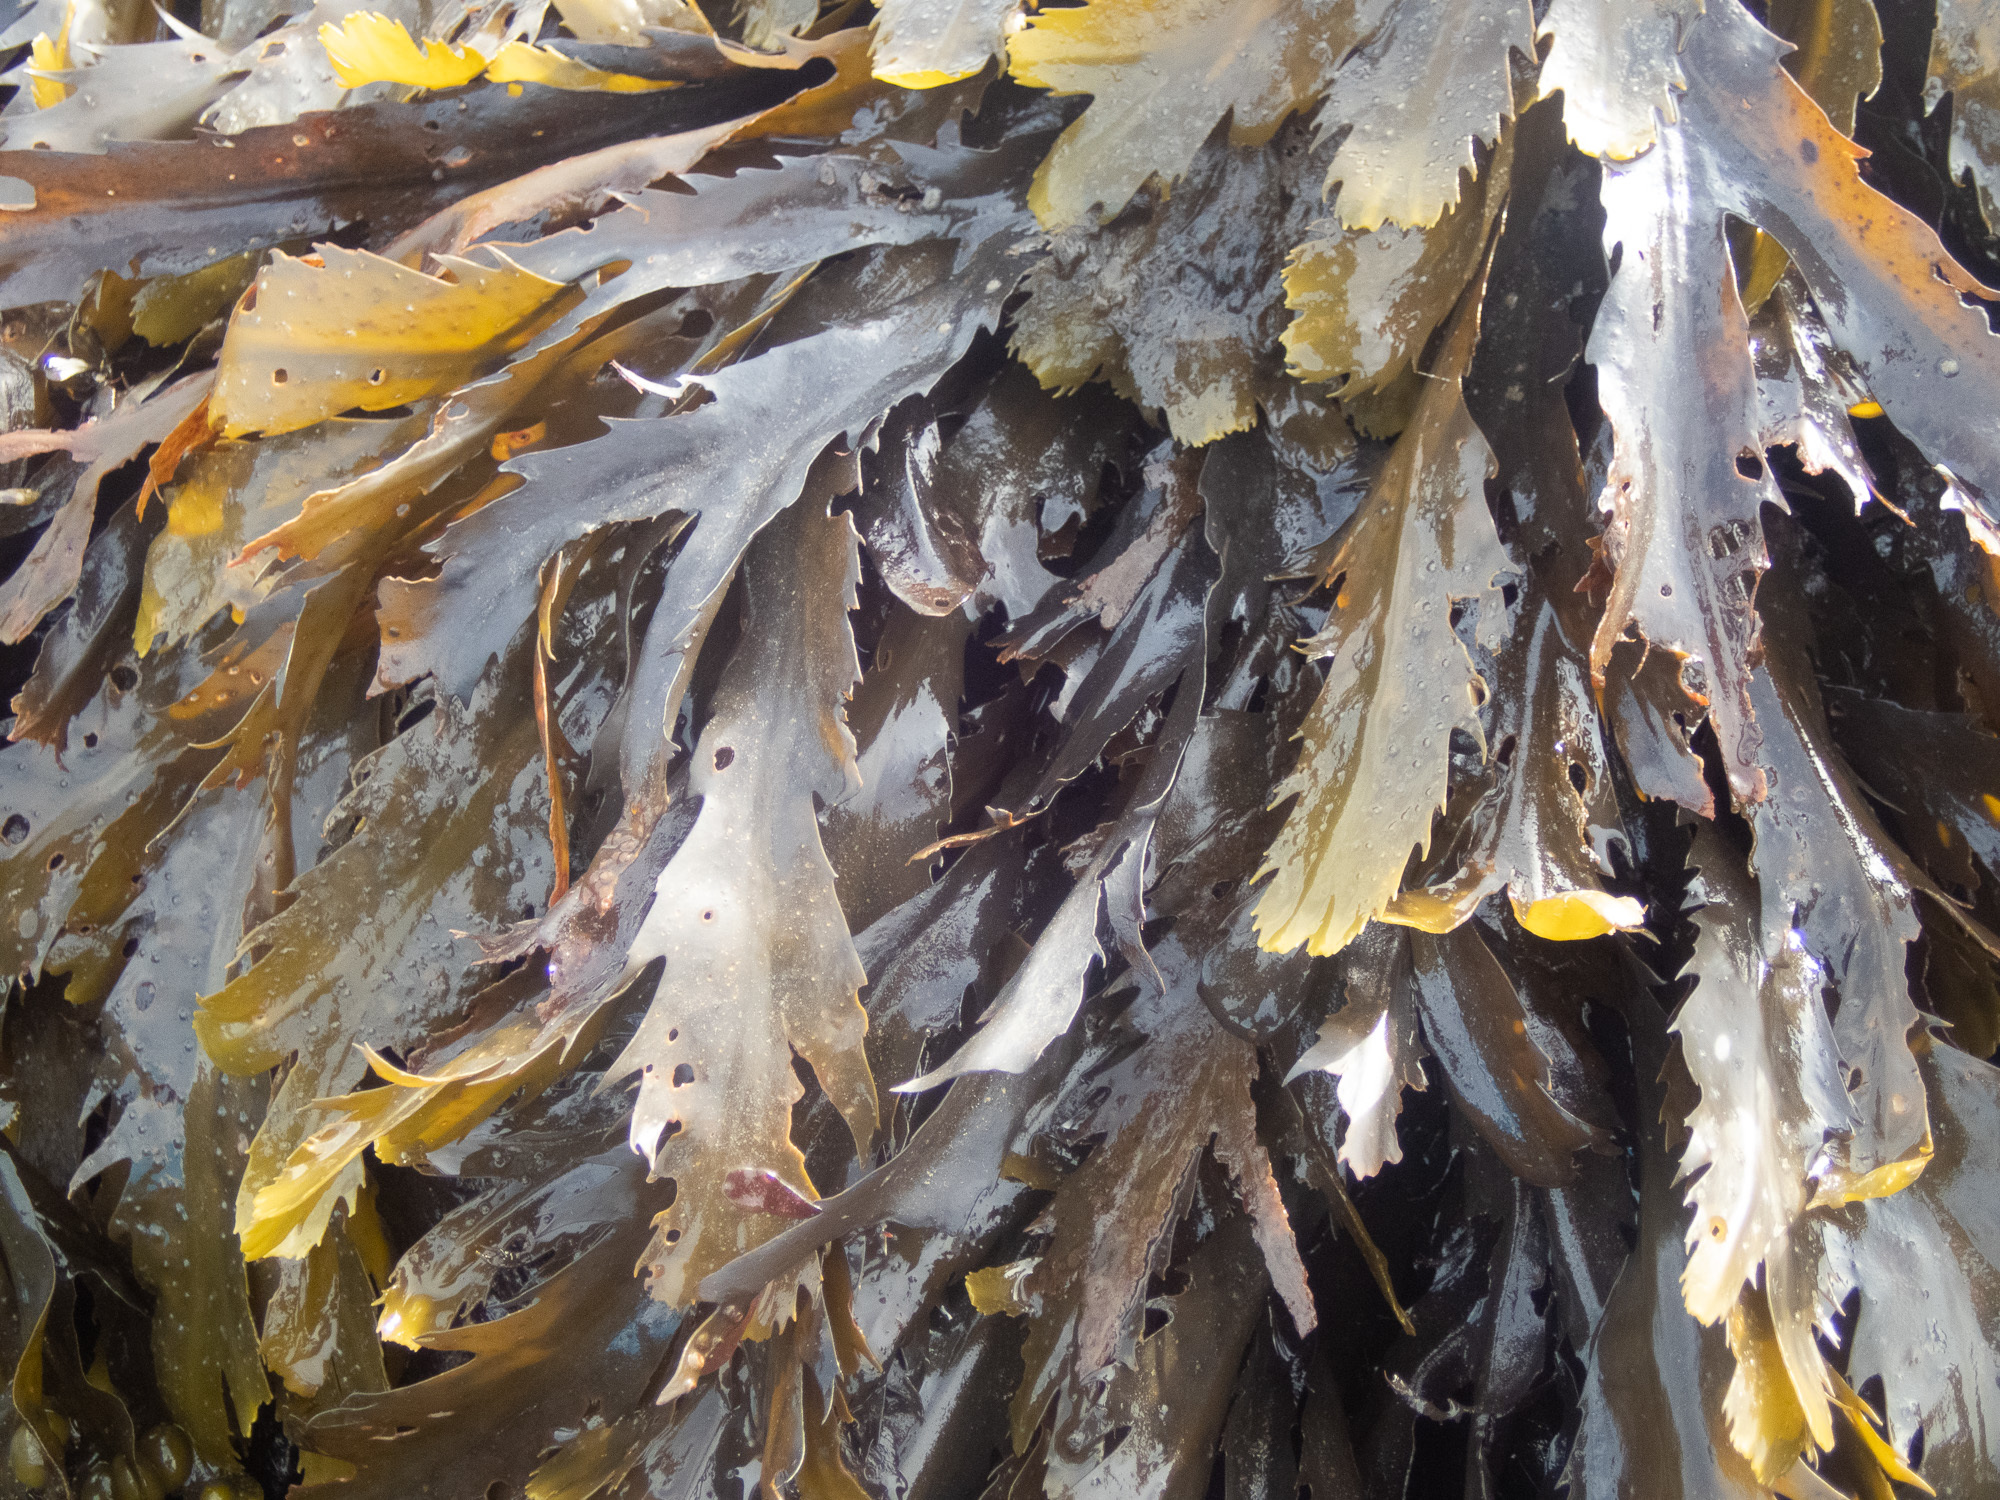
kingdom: Chromista
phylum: Ochrophyta
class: Phaeophyceae
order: Fucales
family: Fucaceae
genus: Fucus
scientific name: Fucus serratus
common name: Toothed wrack
